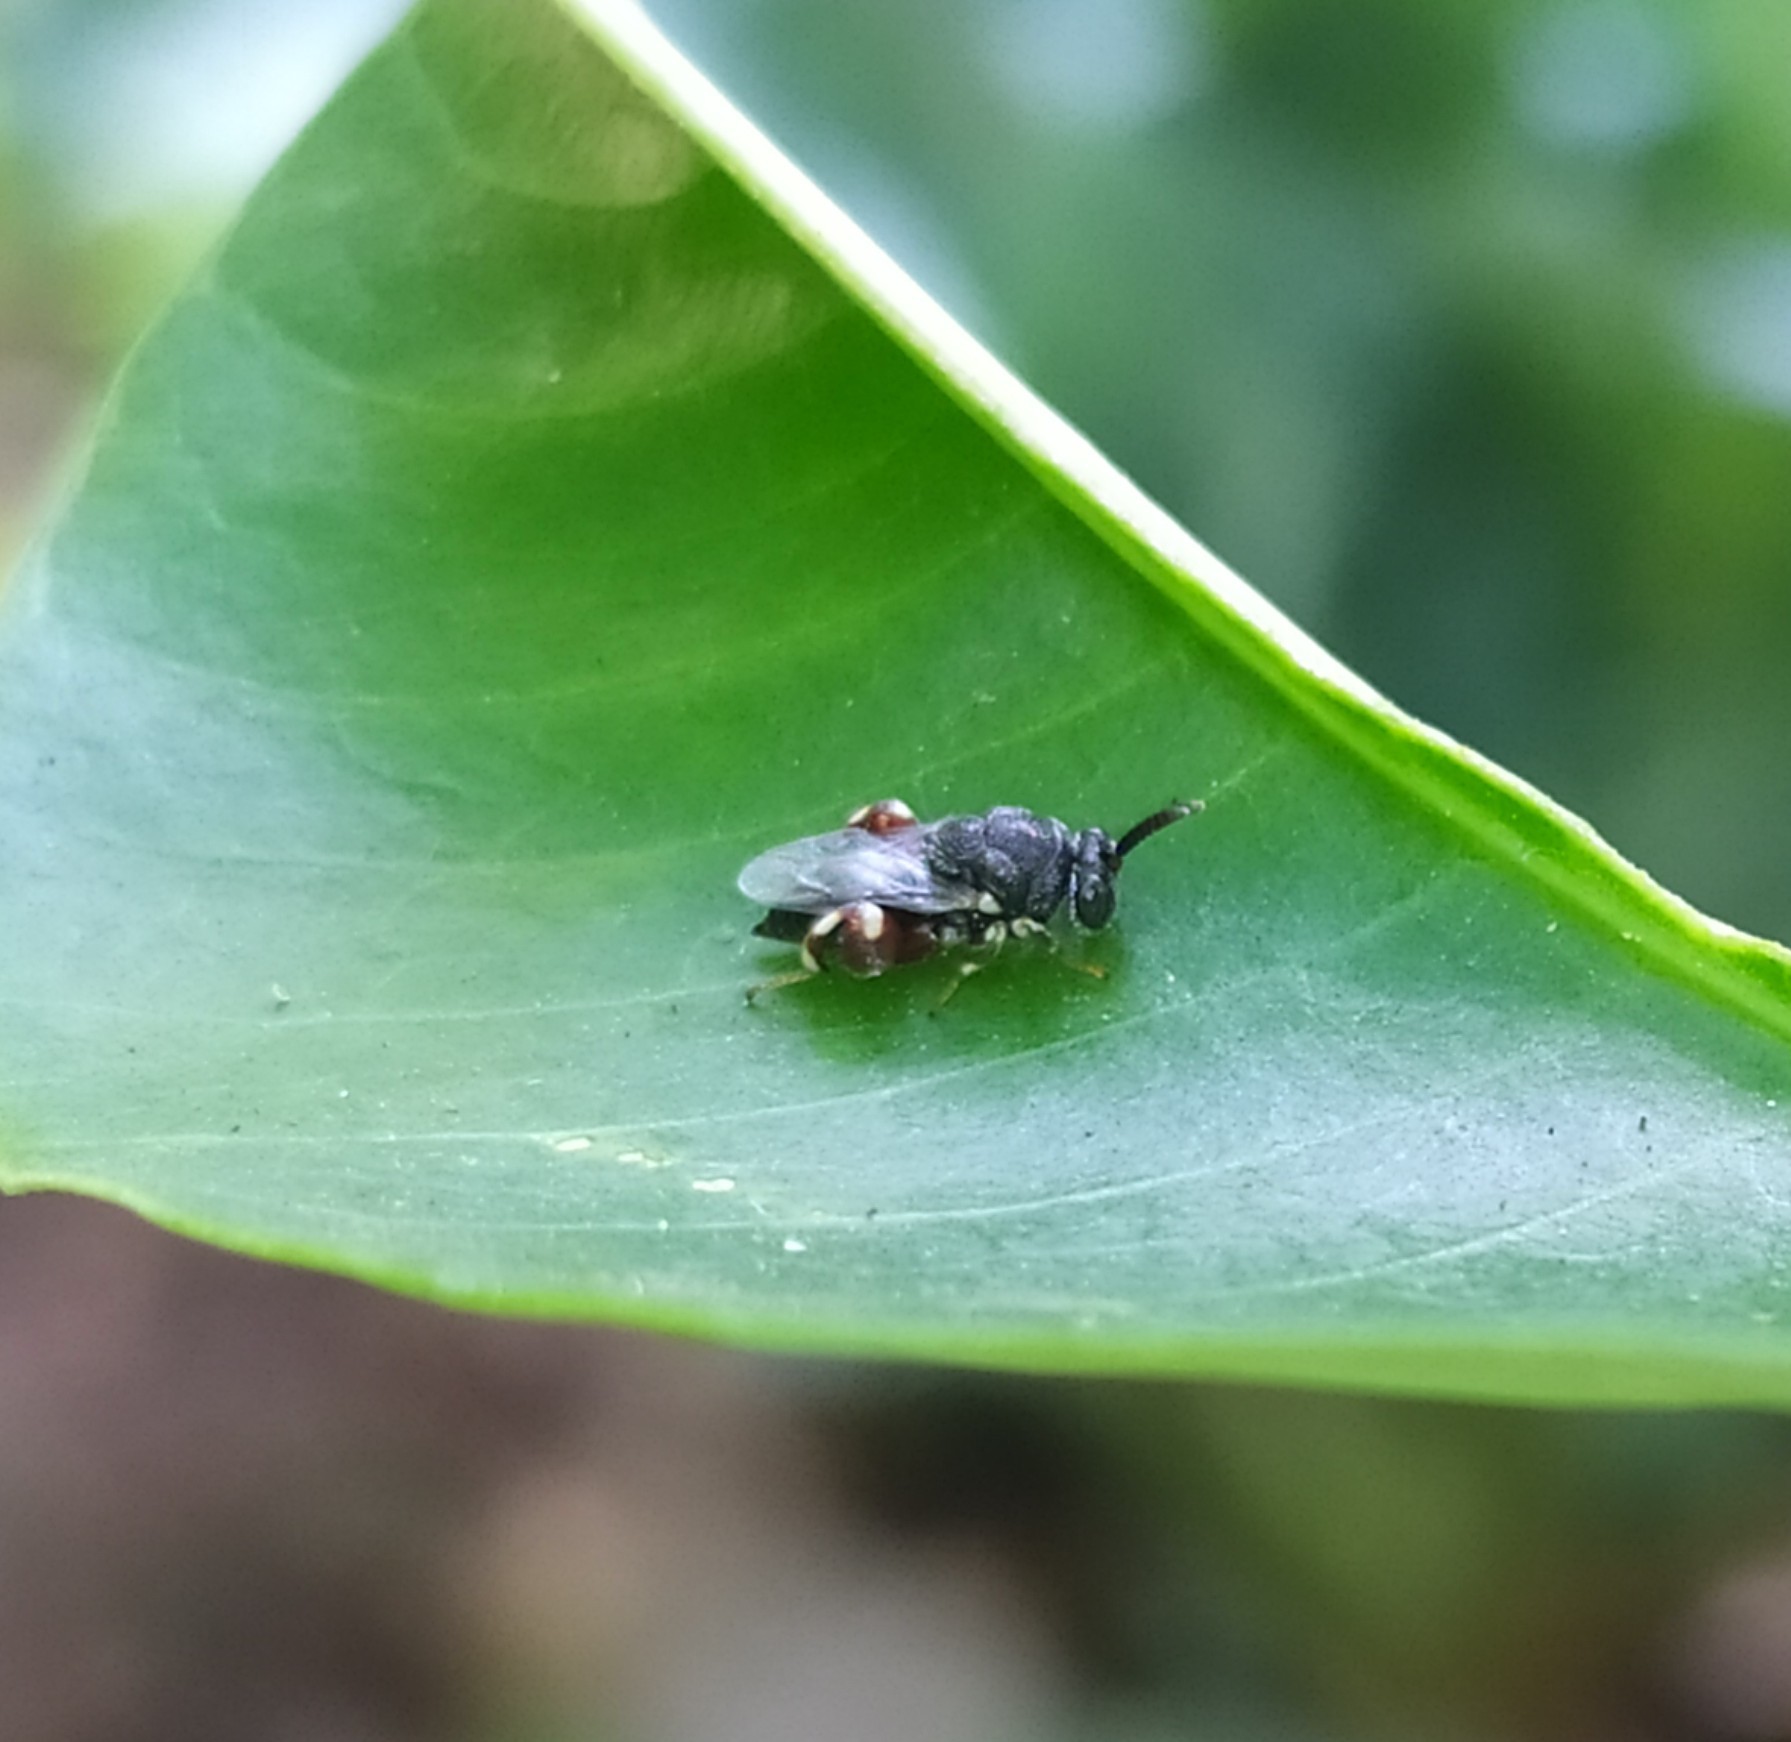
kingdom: Animalia
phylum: Arthropoda
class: Insecta
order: Hymenoptera
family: Chalcididae
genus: Brachymeria
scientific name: Brachymeria podagrica
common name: Chalcid wasp
